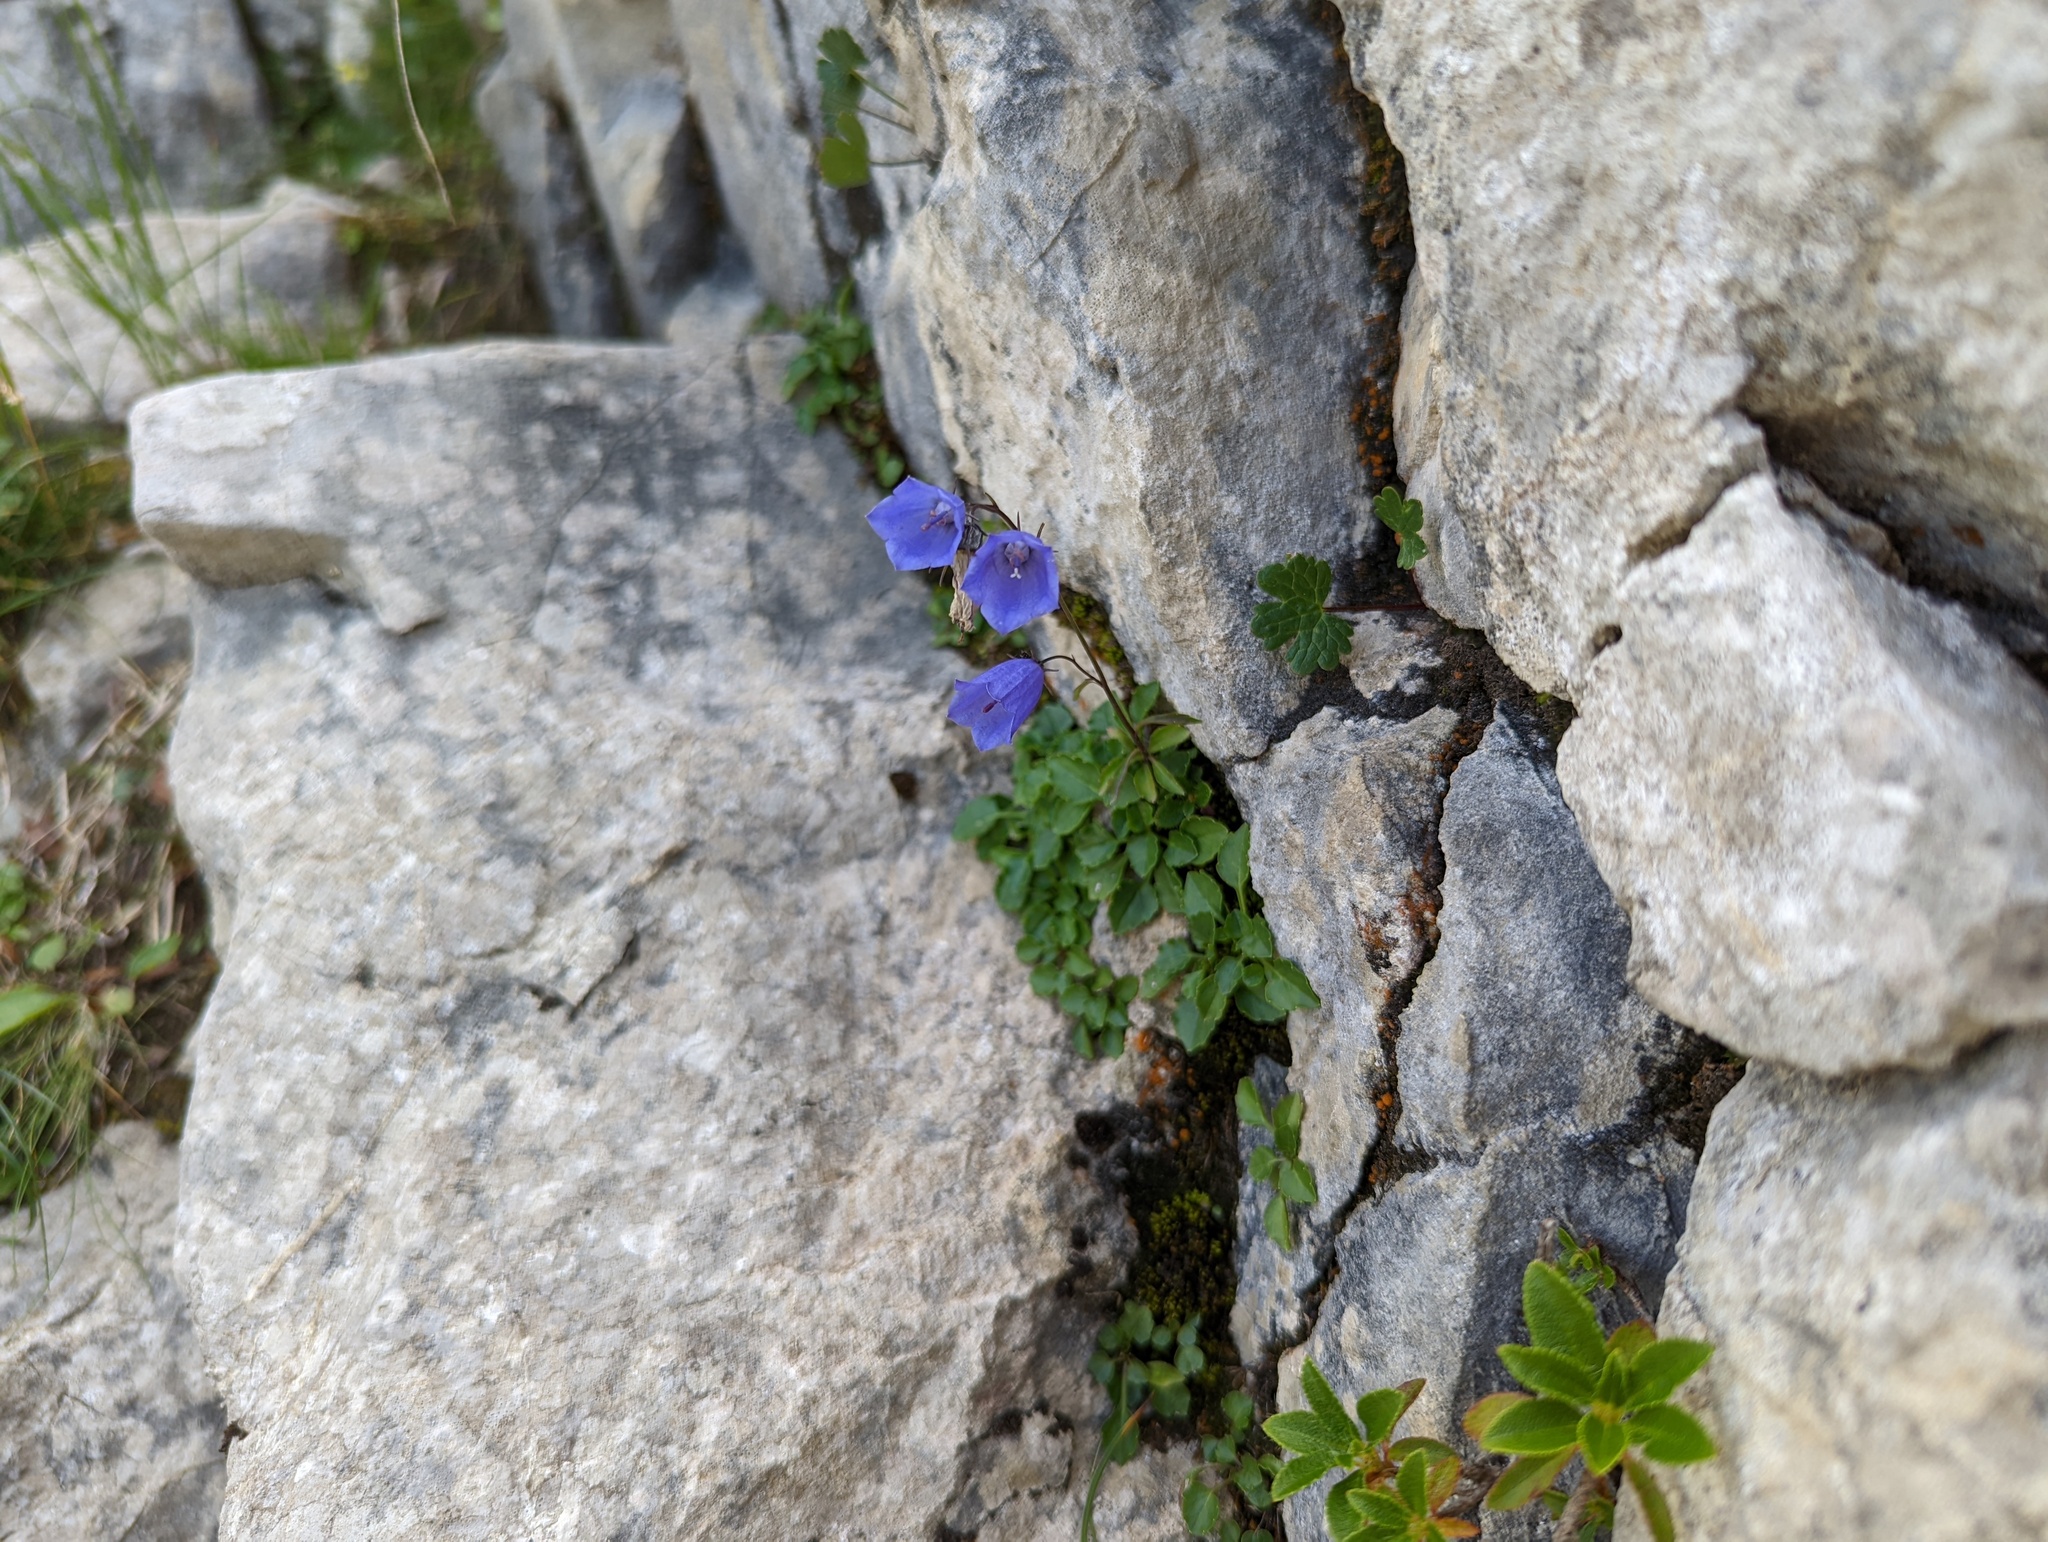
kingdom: Plantae
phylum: Tracheophyta
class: Magnoliopsida
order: Asterales
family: Campanulaceae
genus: Campanula
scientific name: Campanula cochleariifolia
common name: Fairies'-thimbles
